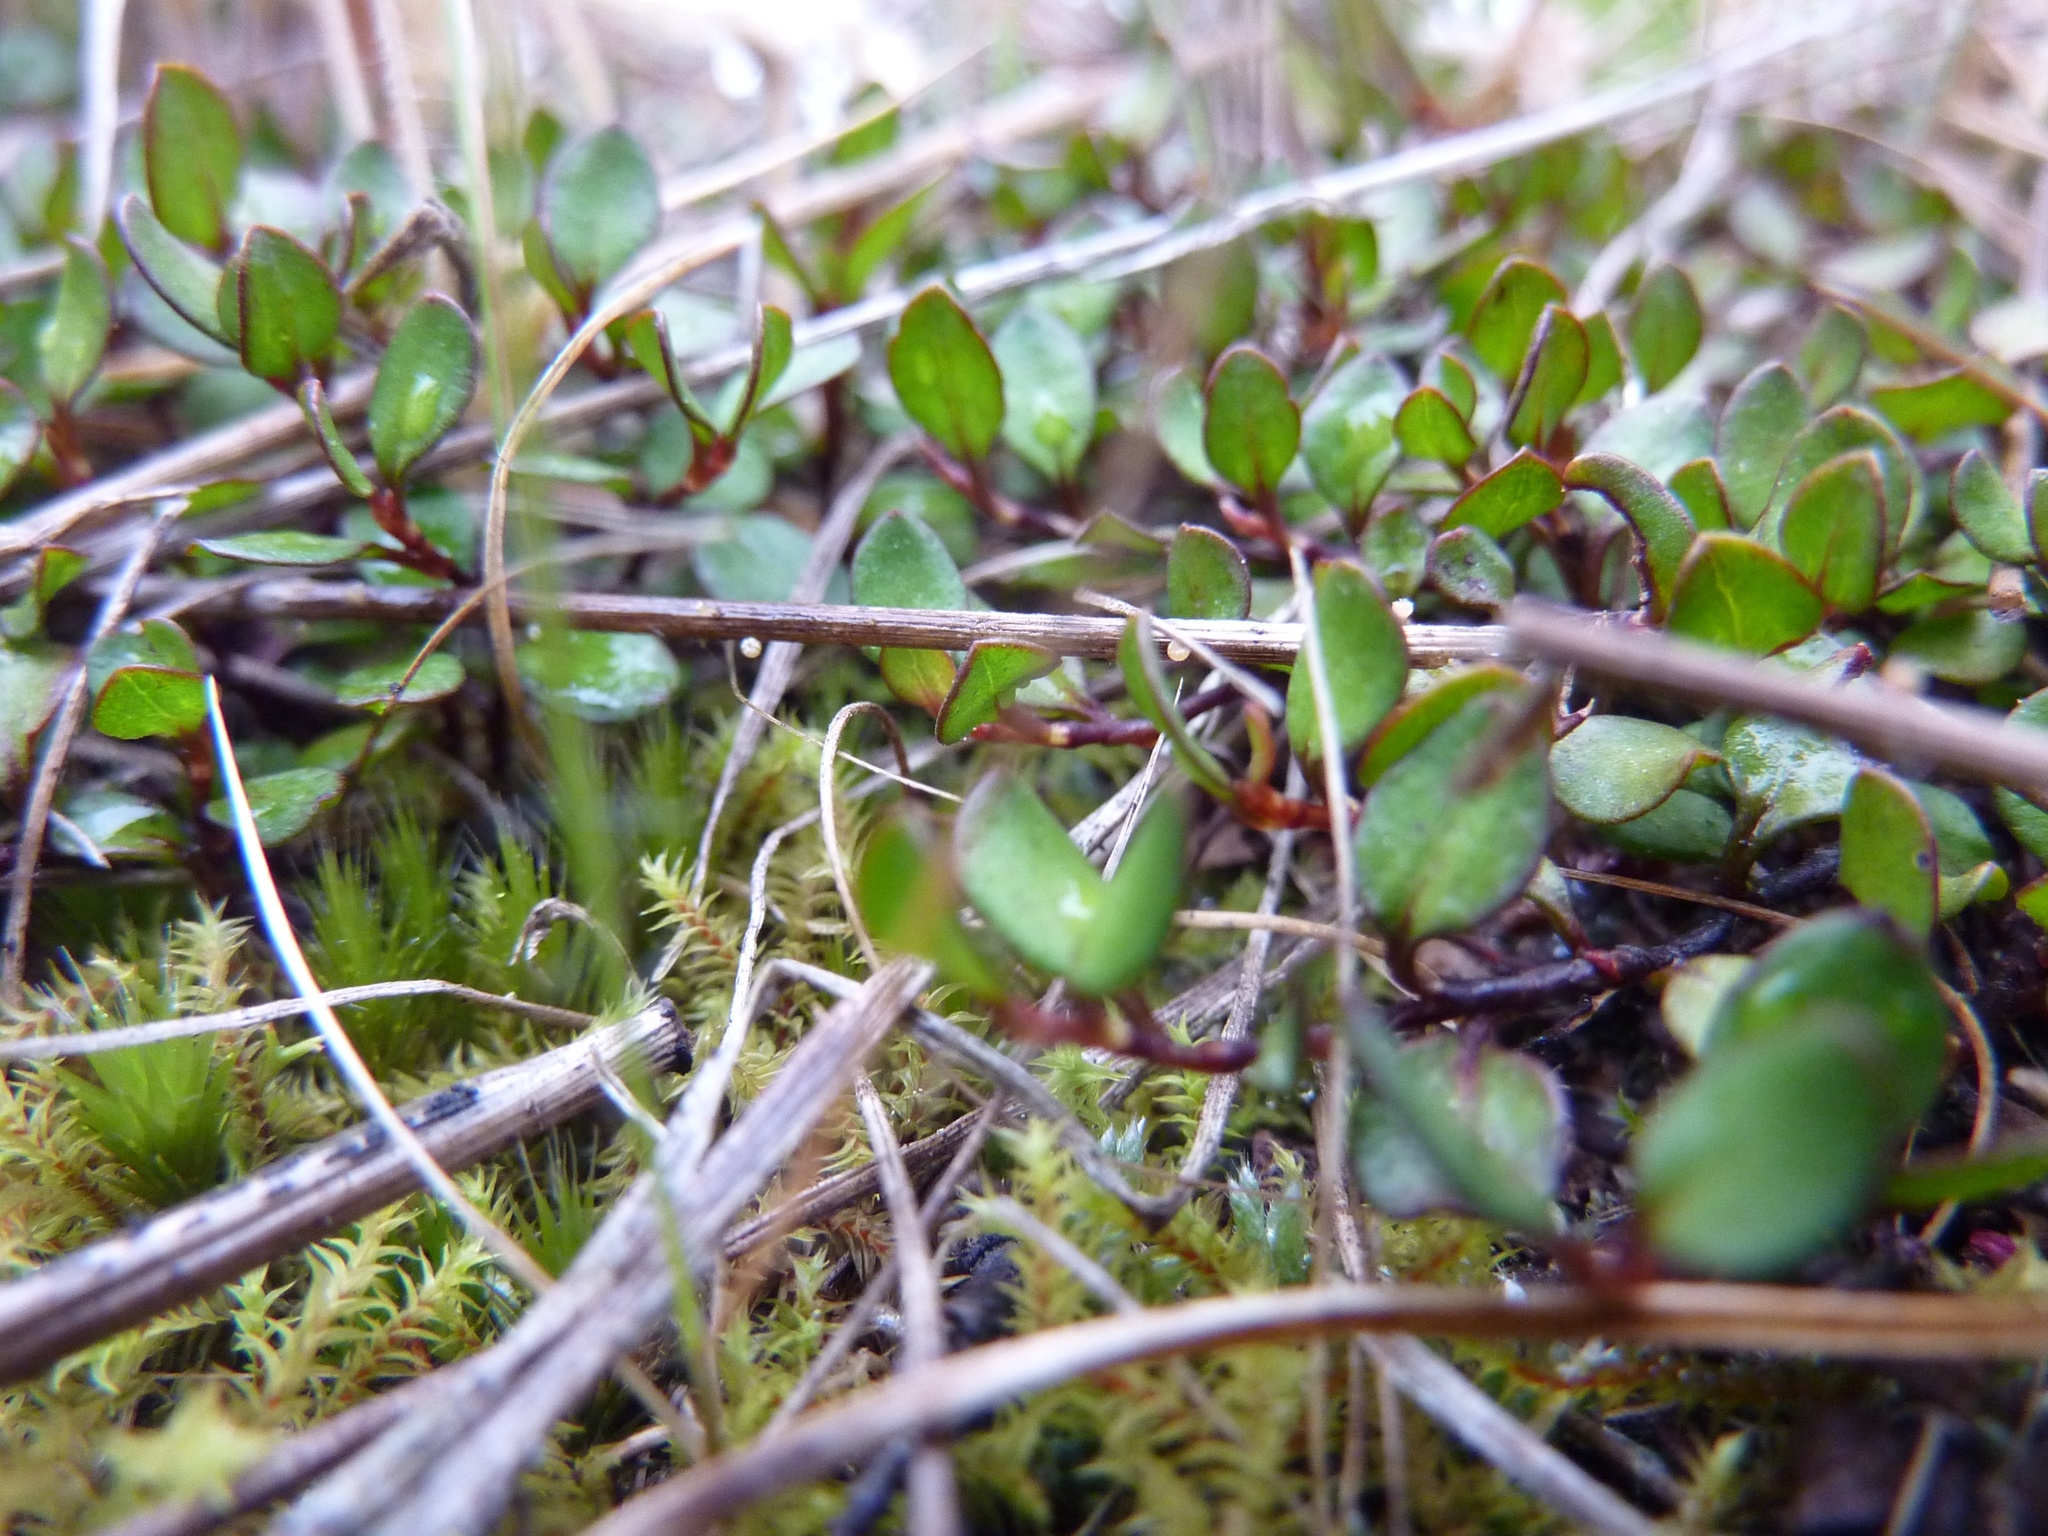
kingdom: Plantae
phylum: Tracheophyta
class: Magnoliopsida
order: Caryophyllales
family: Polygonaceae
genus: Muehlenbeckia
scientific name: Muehlenbeckia axillaris
